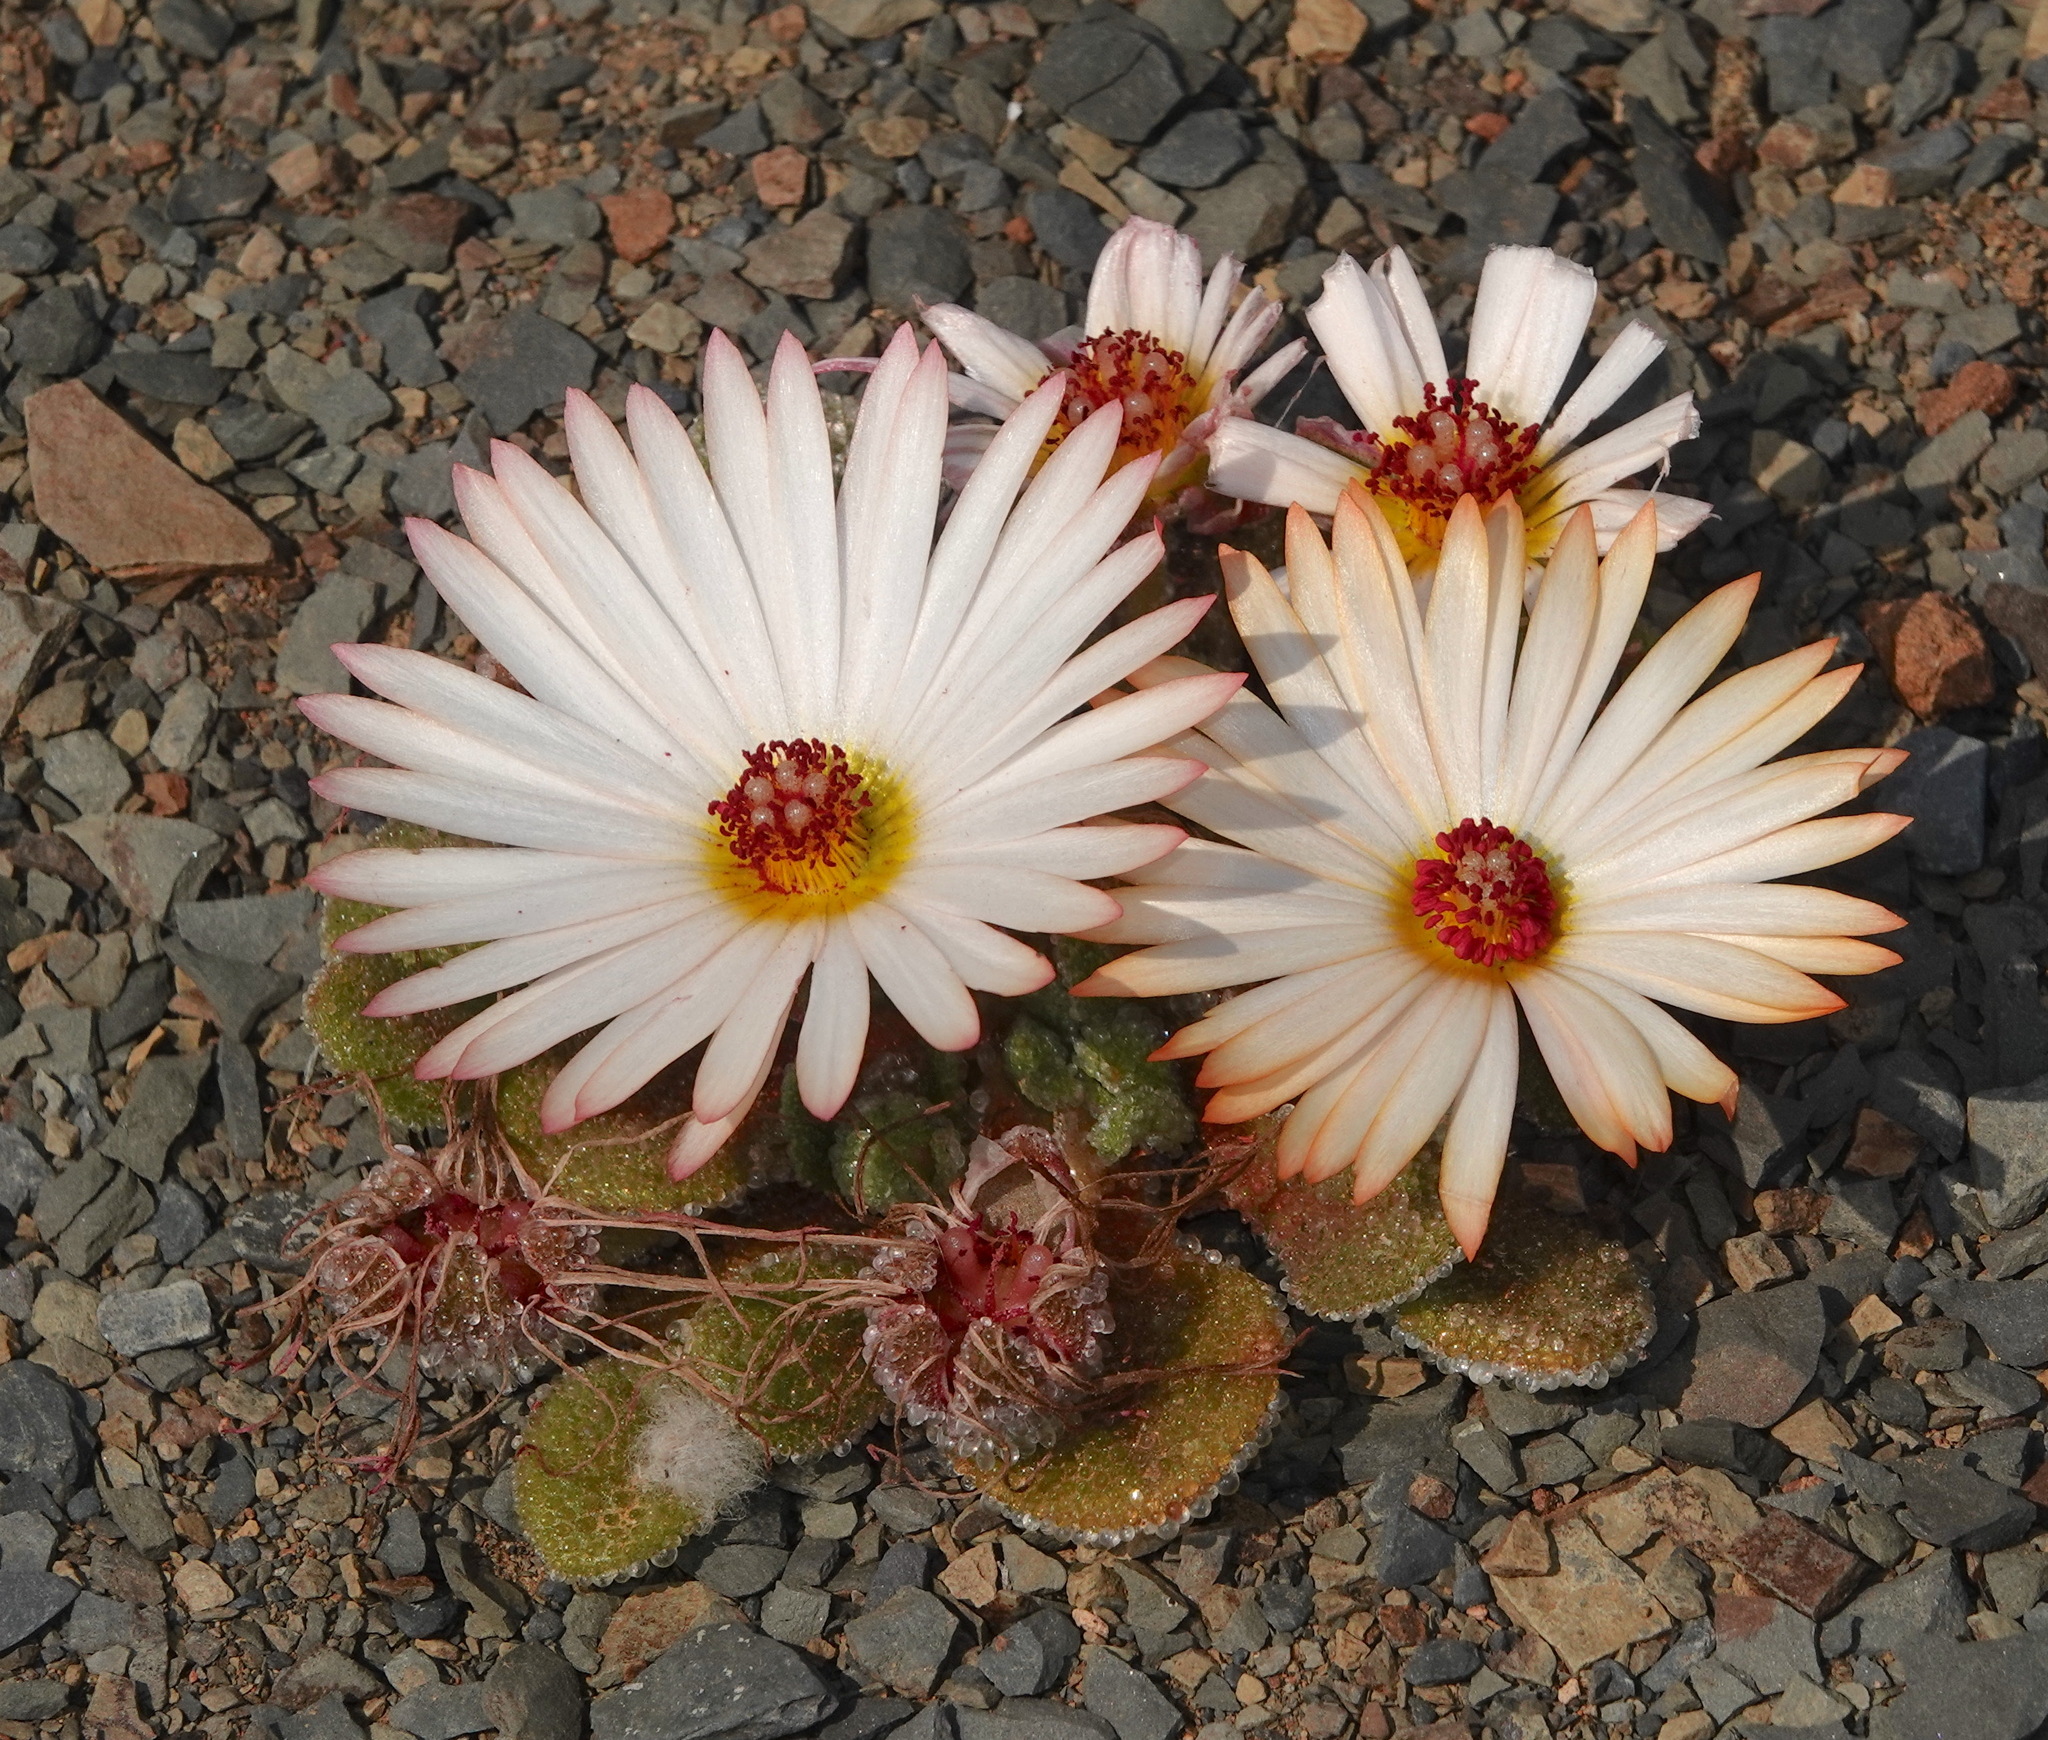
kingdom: Plantae
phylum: Tracheophyta
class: Magnoliopsida
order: Caryophyllales
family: Aizoaceae
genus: Cleretum
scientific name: Cleretum maughanii
